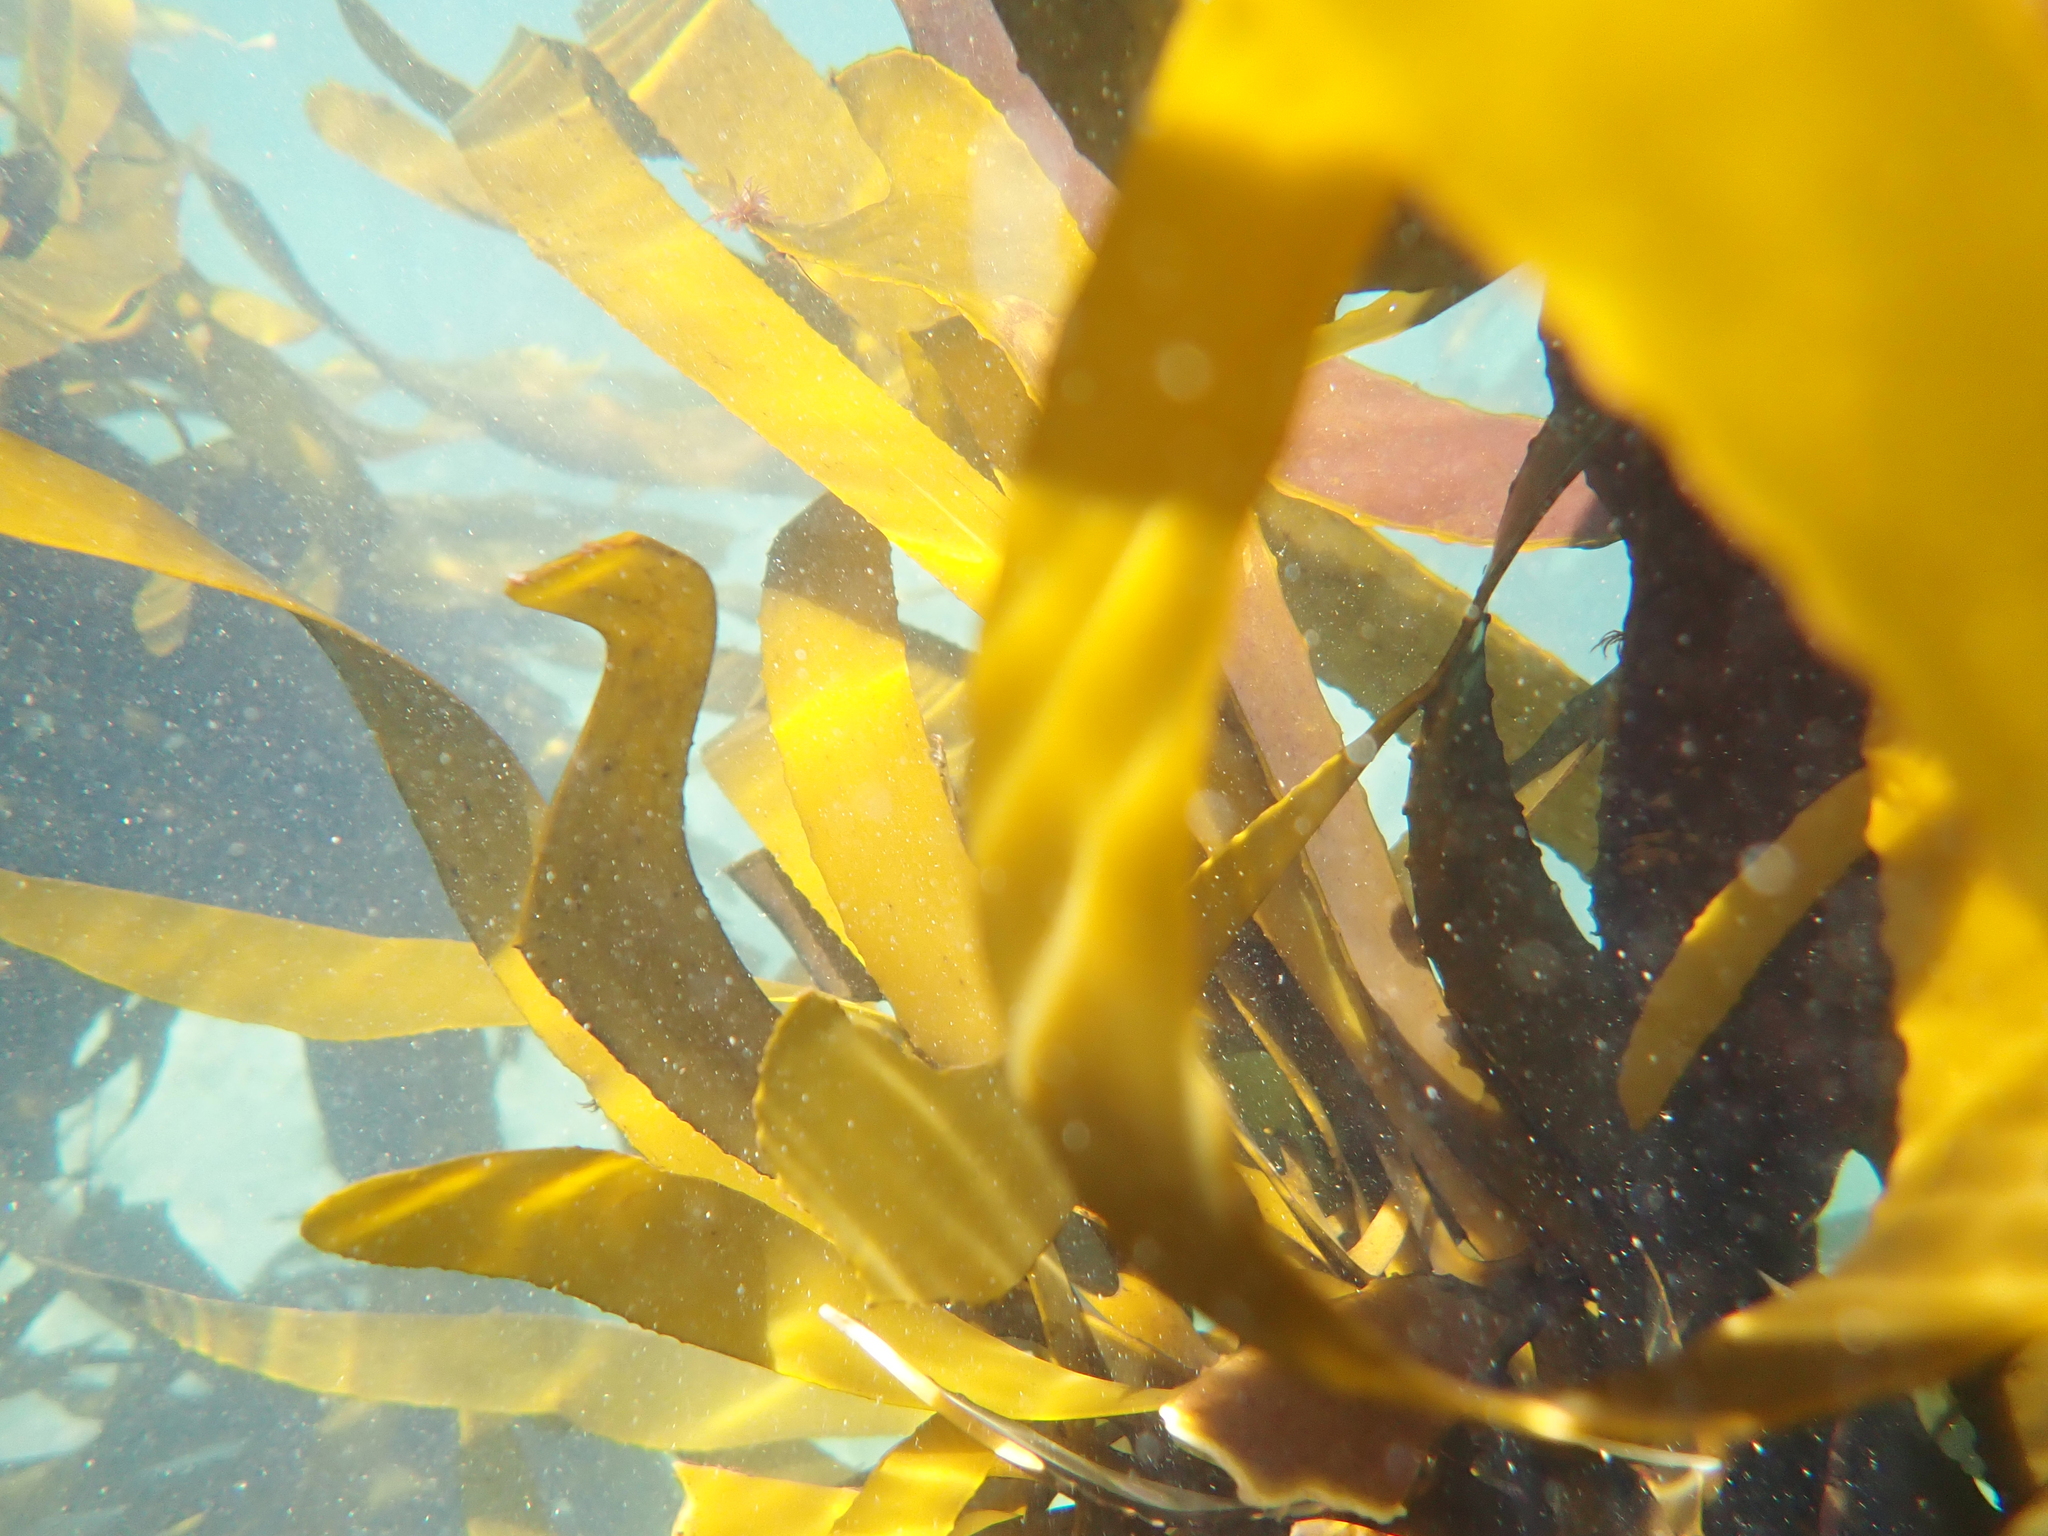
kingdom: Chromista
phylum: Ochrophyta
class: Phaeophyceae
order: Laminariales
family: Lessoniaceae
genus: Ecklonia
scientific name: Ecklonia
